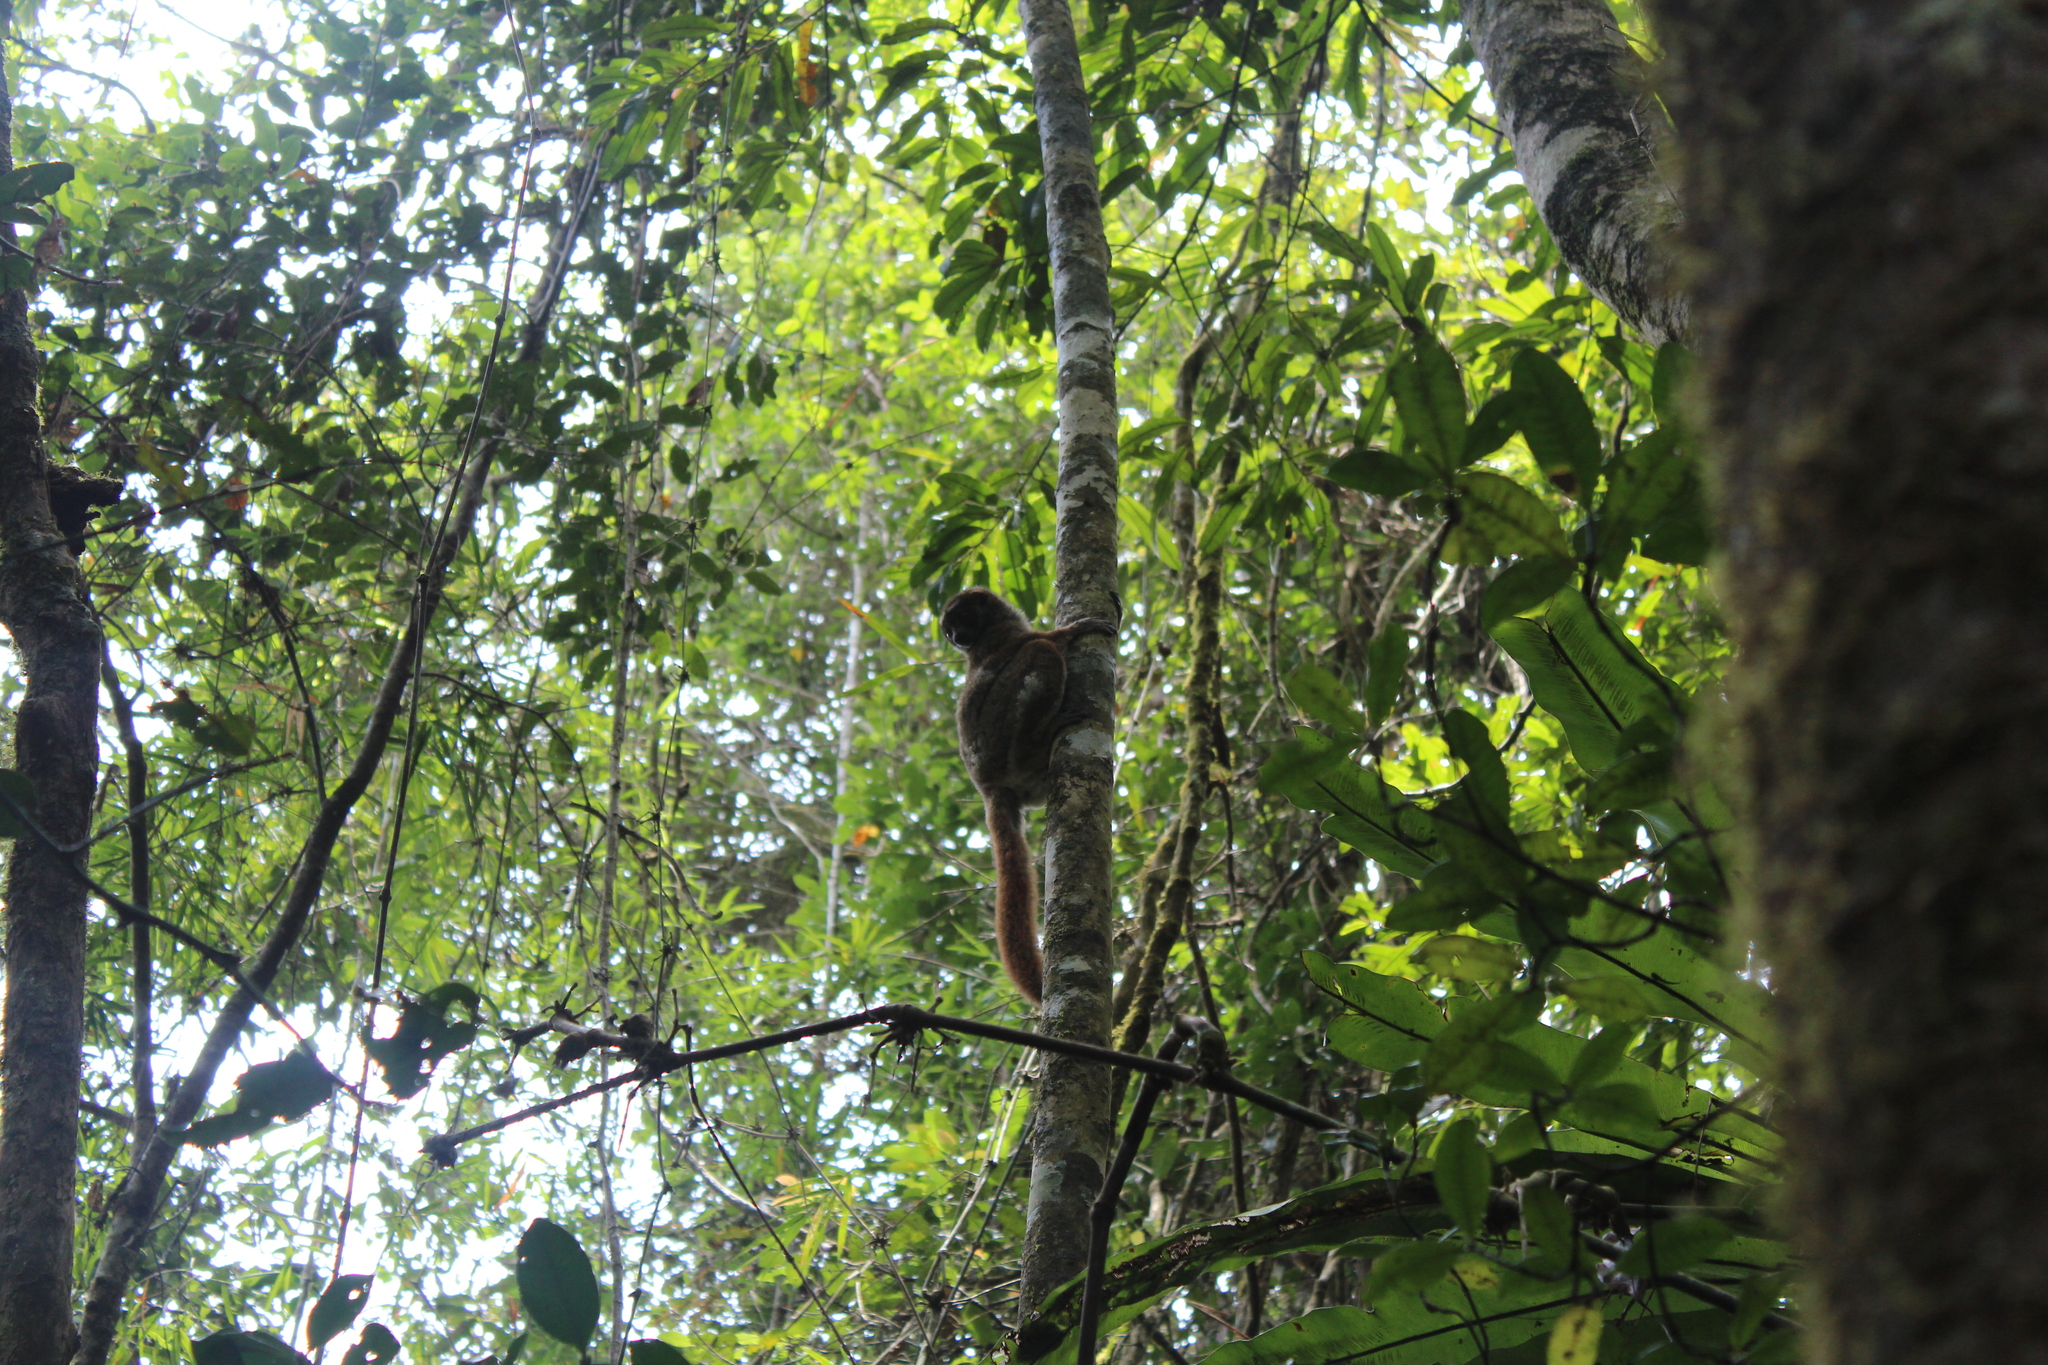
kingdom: Animalia
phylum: Chordata
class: Mammalia
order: Primates
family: Indriidae
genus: Avahi
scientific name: Avahi peyrierasi
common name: Peyrieras's woolly lemur
